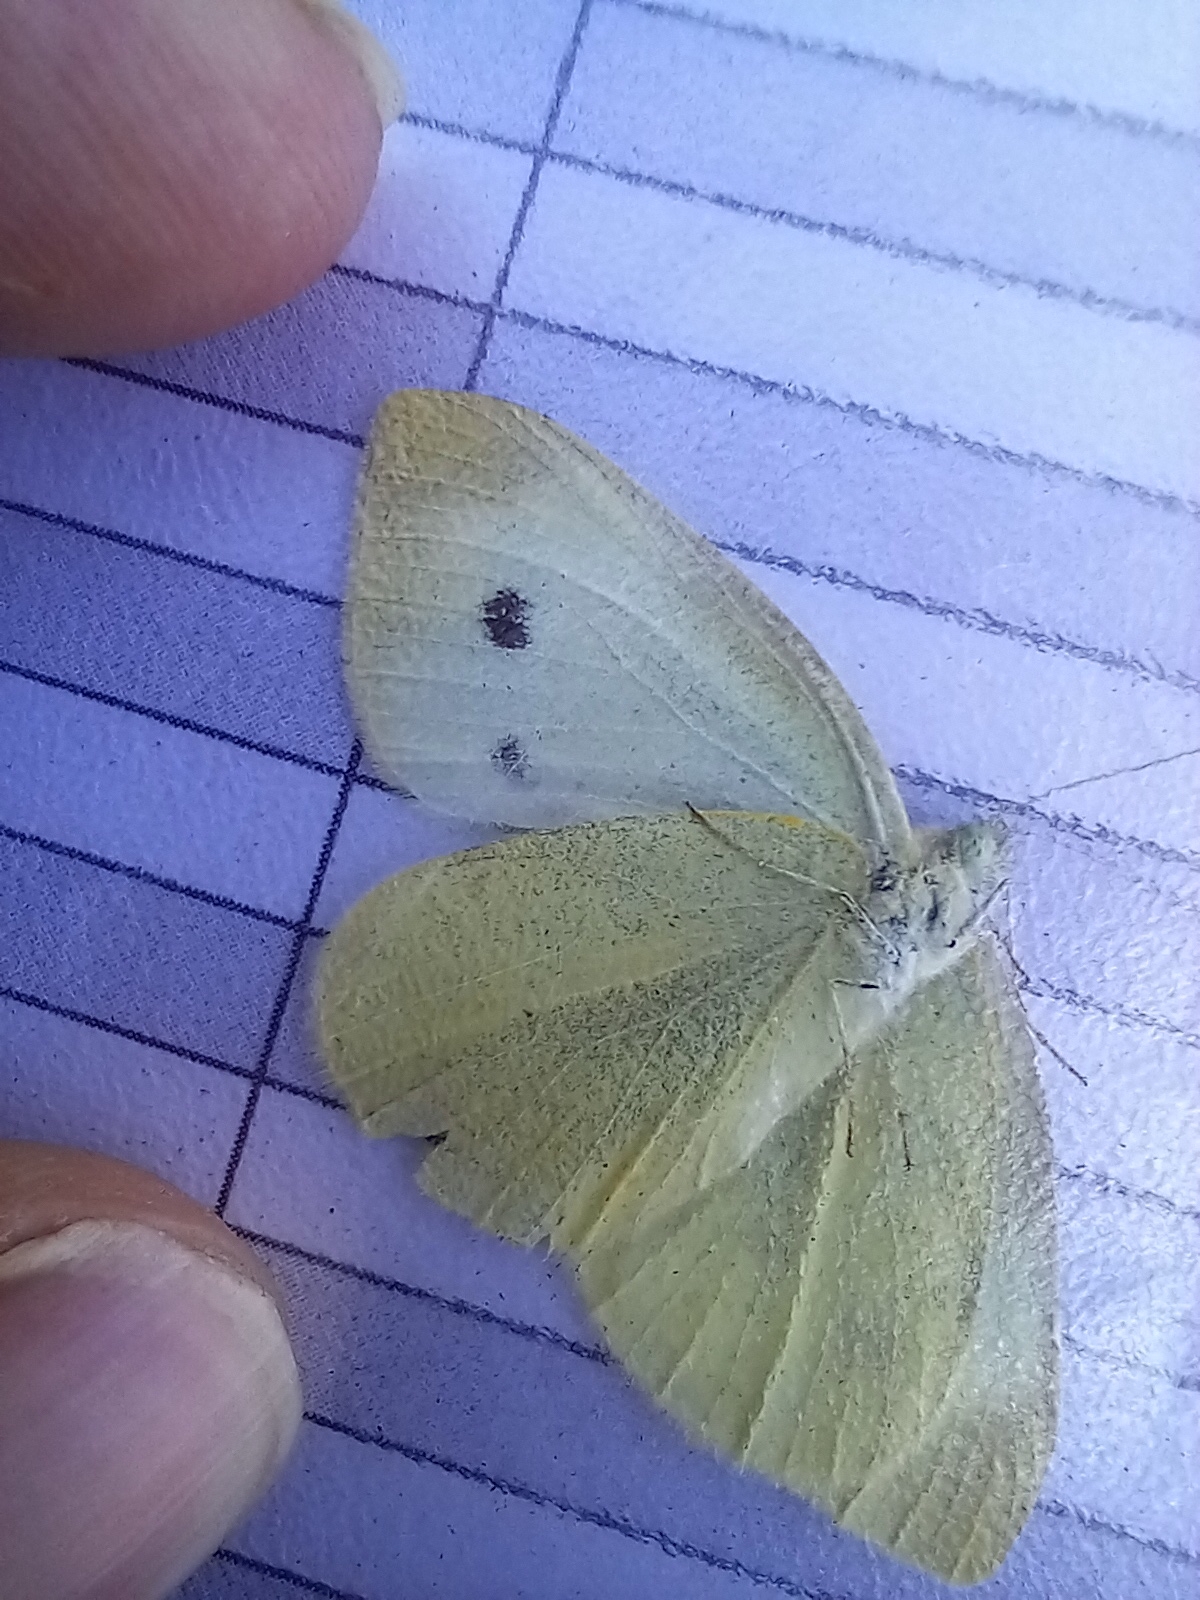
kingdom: Animalia
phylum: Arthropoda
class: Insecta
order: Lepidoptera
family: Pieridae
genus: Pieris
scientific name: Pieris rapae
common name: Small white
